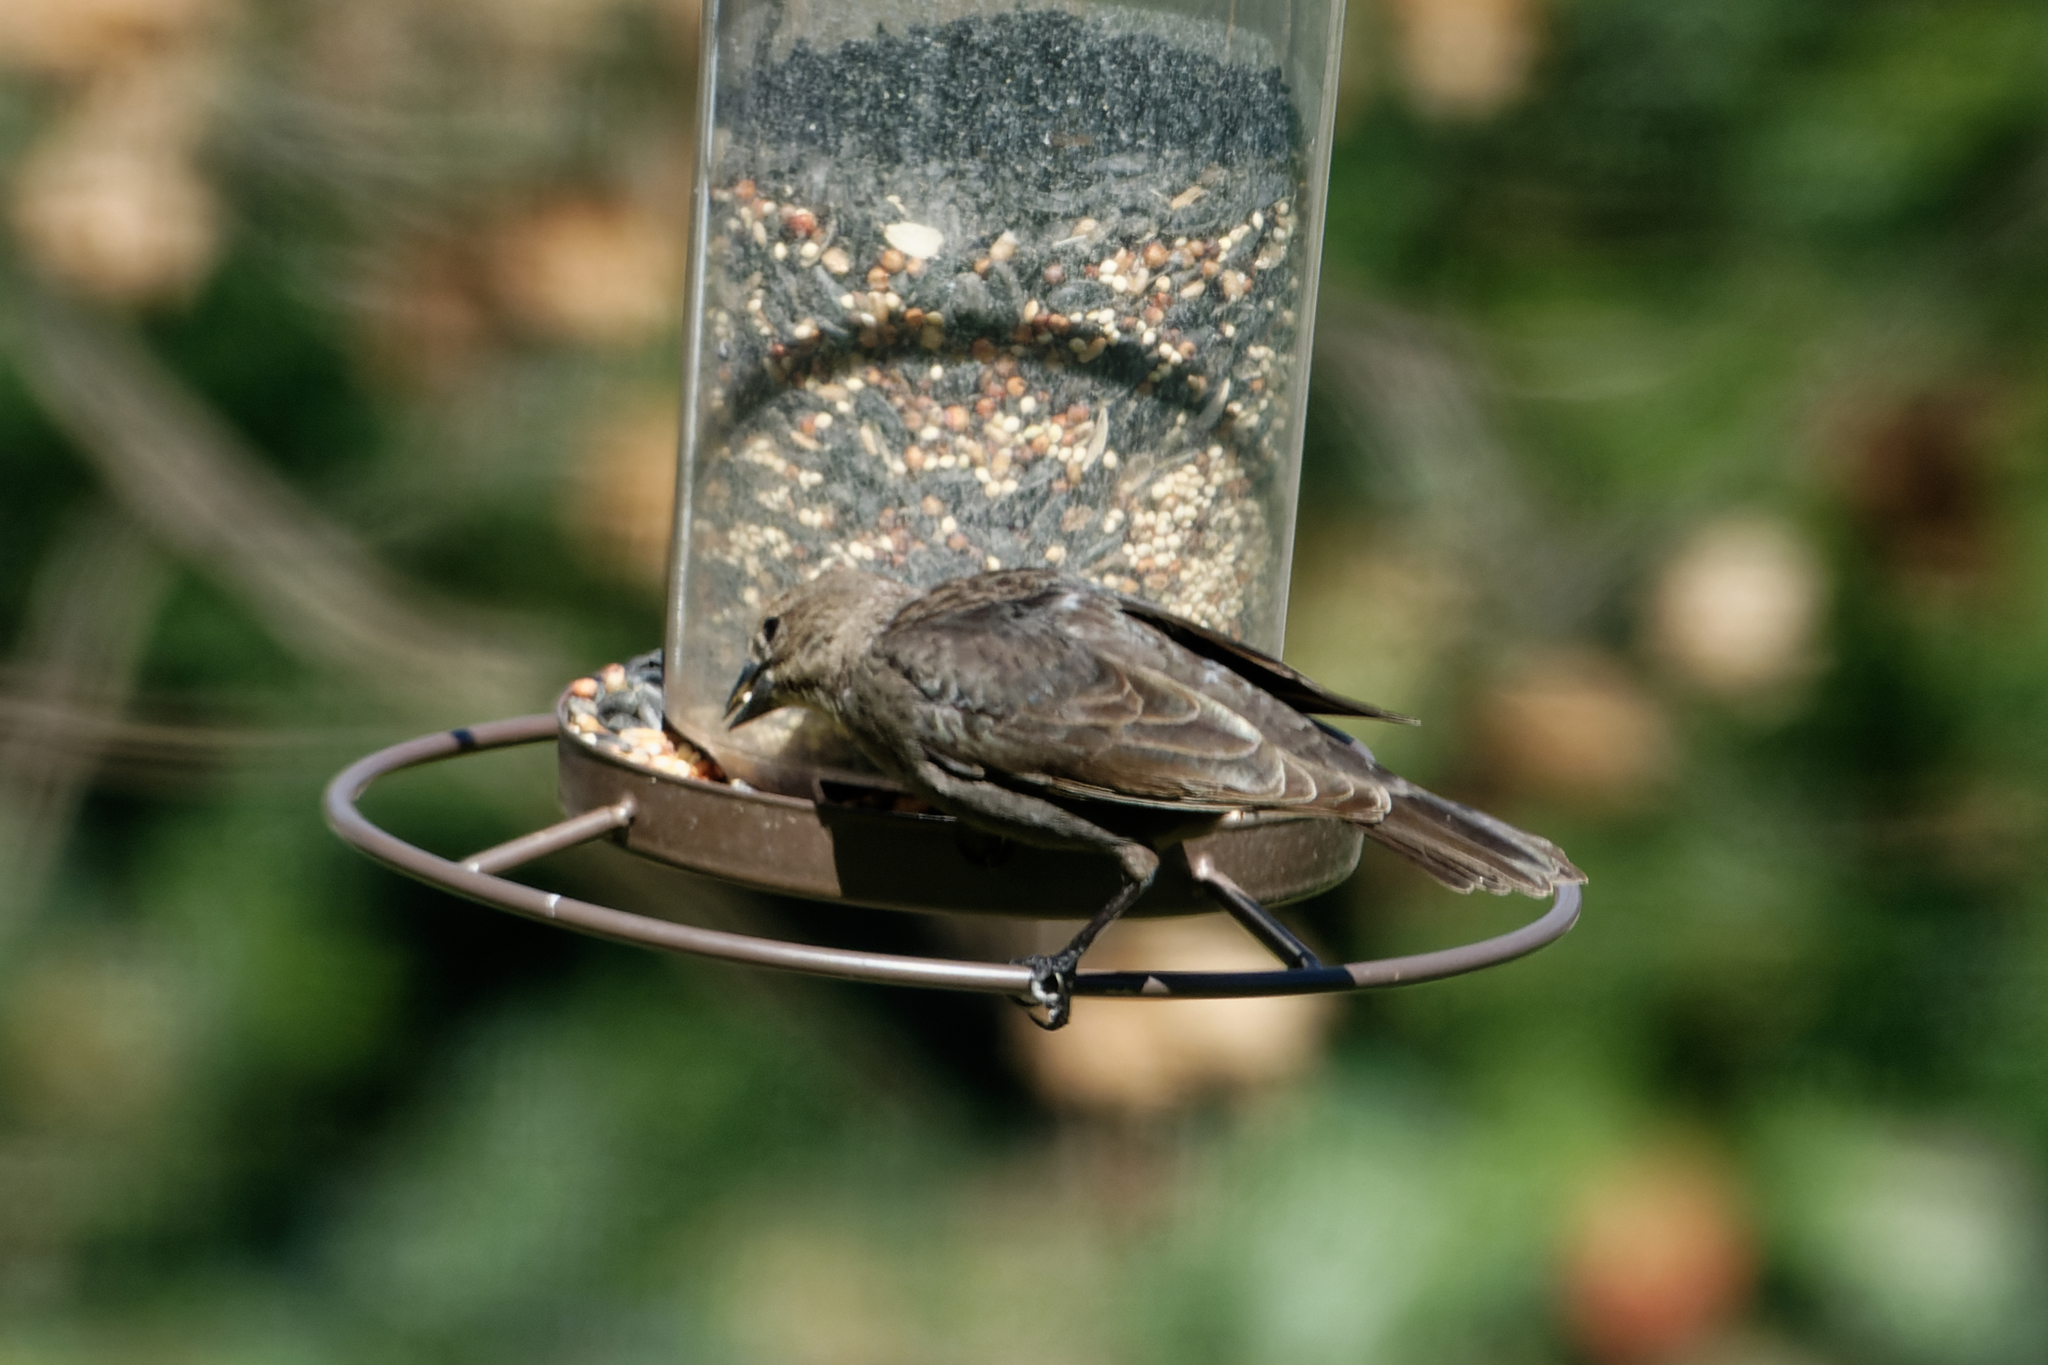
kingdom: Animalia
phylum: Chordata
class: Aves
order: Passeriformes
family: Icteridae
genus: Molothrus
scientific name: Molothrus ater
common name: Brown-headed cowbird
